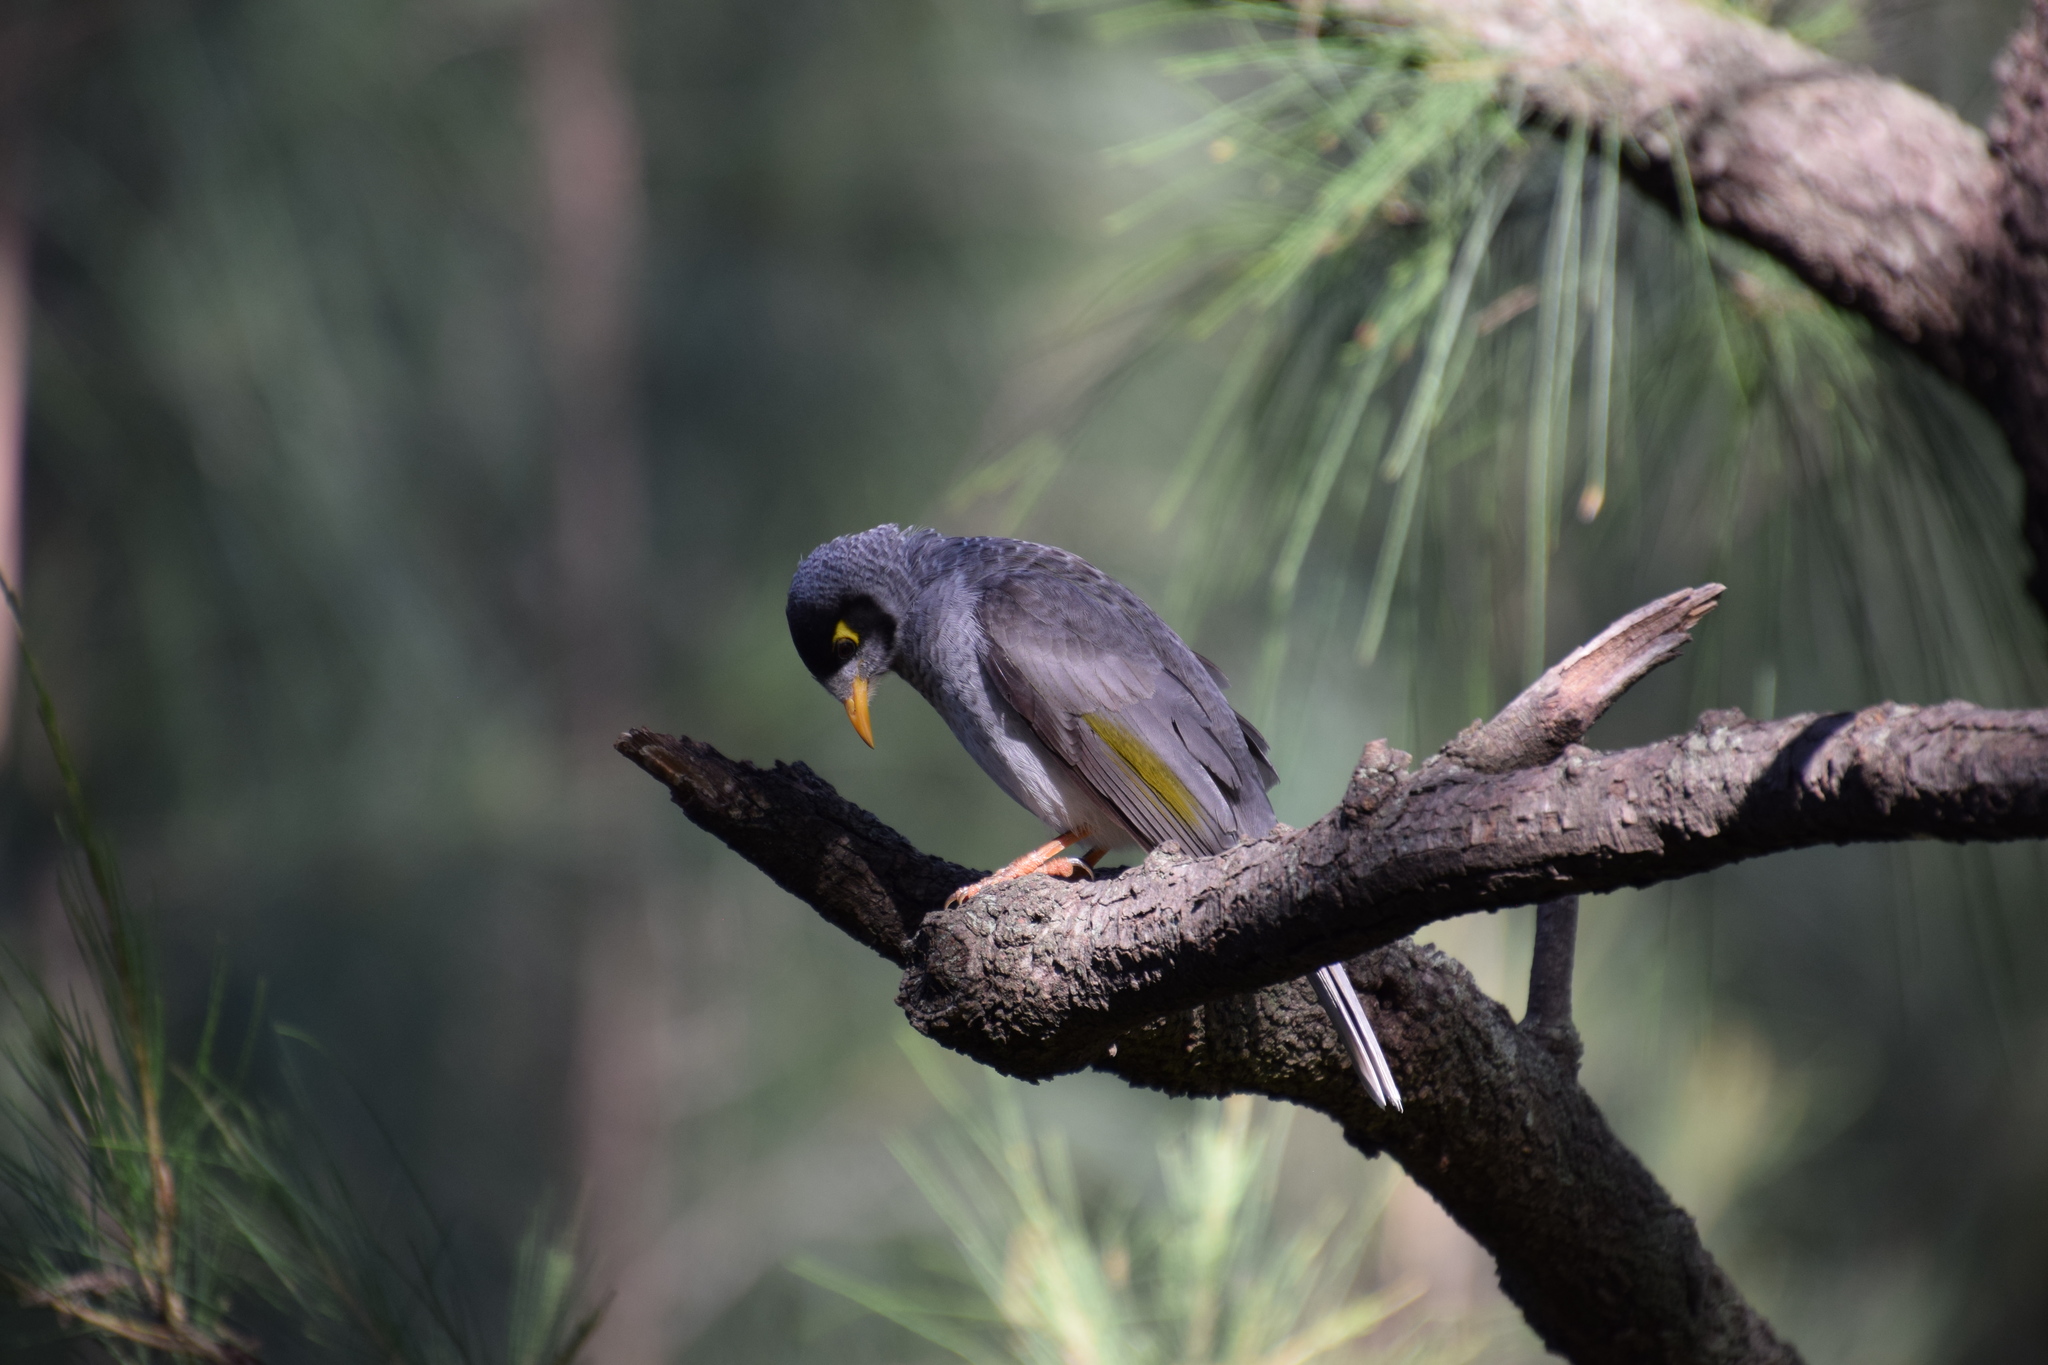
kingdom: Animalia
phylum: Chordata
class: Aves
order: Passeriformes
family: Meliphagidae
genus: Manorina
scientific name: Manorina melanocephala
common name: Noisy miner
